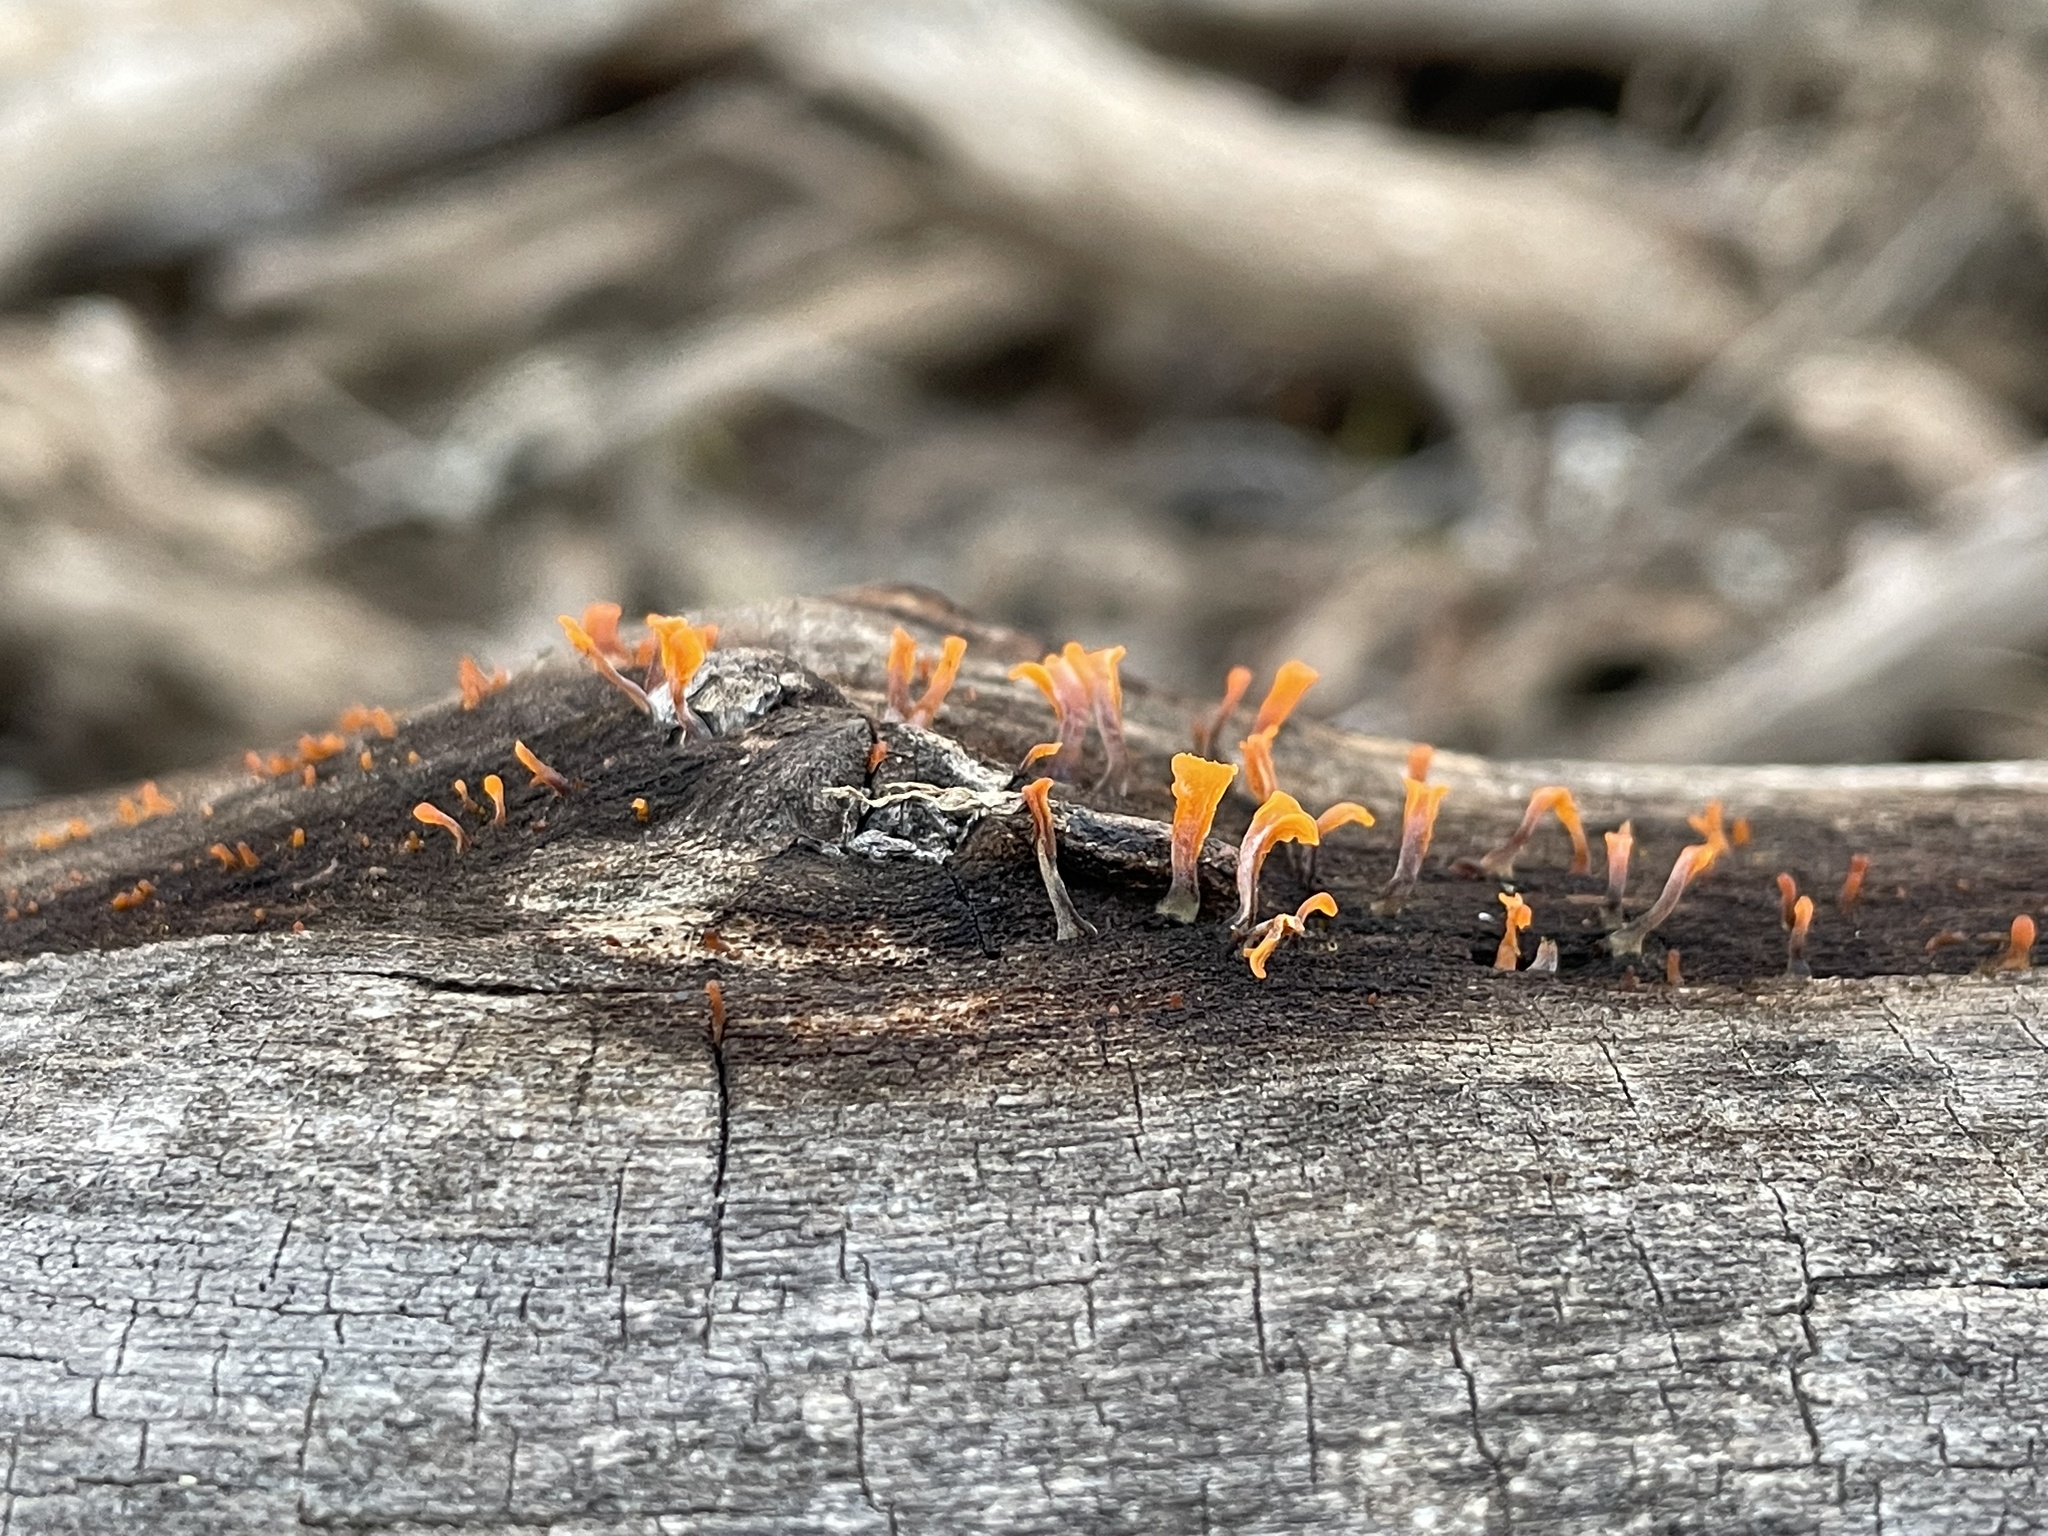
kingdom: Fungi
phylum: Basidiomycota
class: Dacrymycetes
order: Dacrymycetales
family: Dacrymycetaceae
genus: Dacrymyces
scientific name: Dacrymyces spathularius
